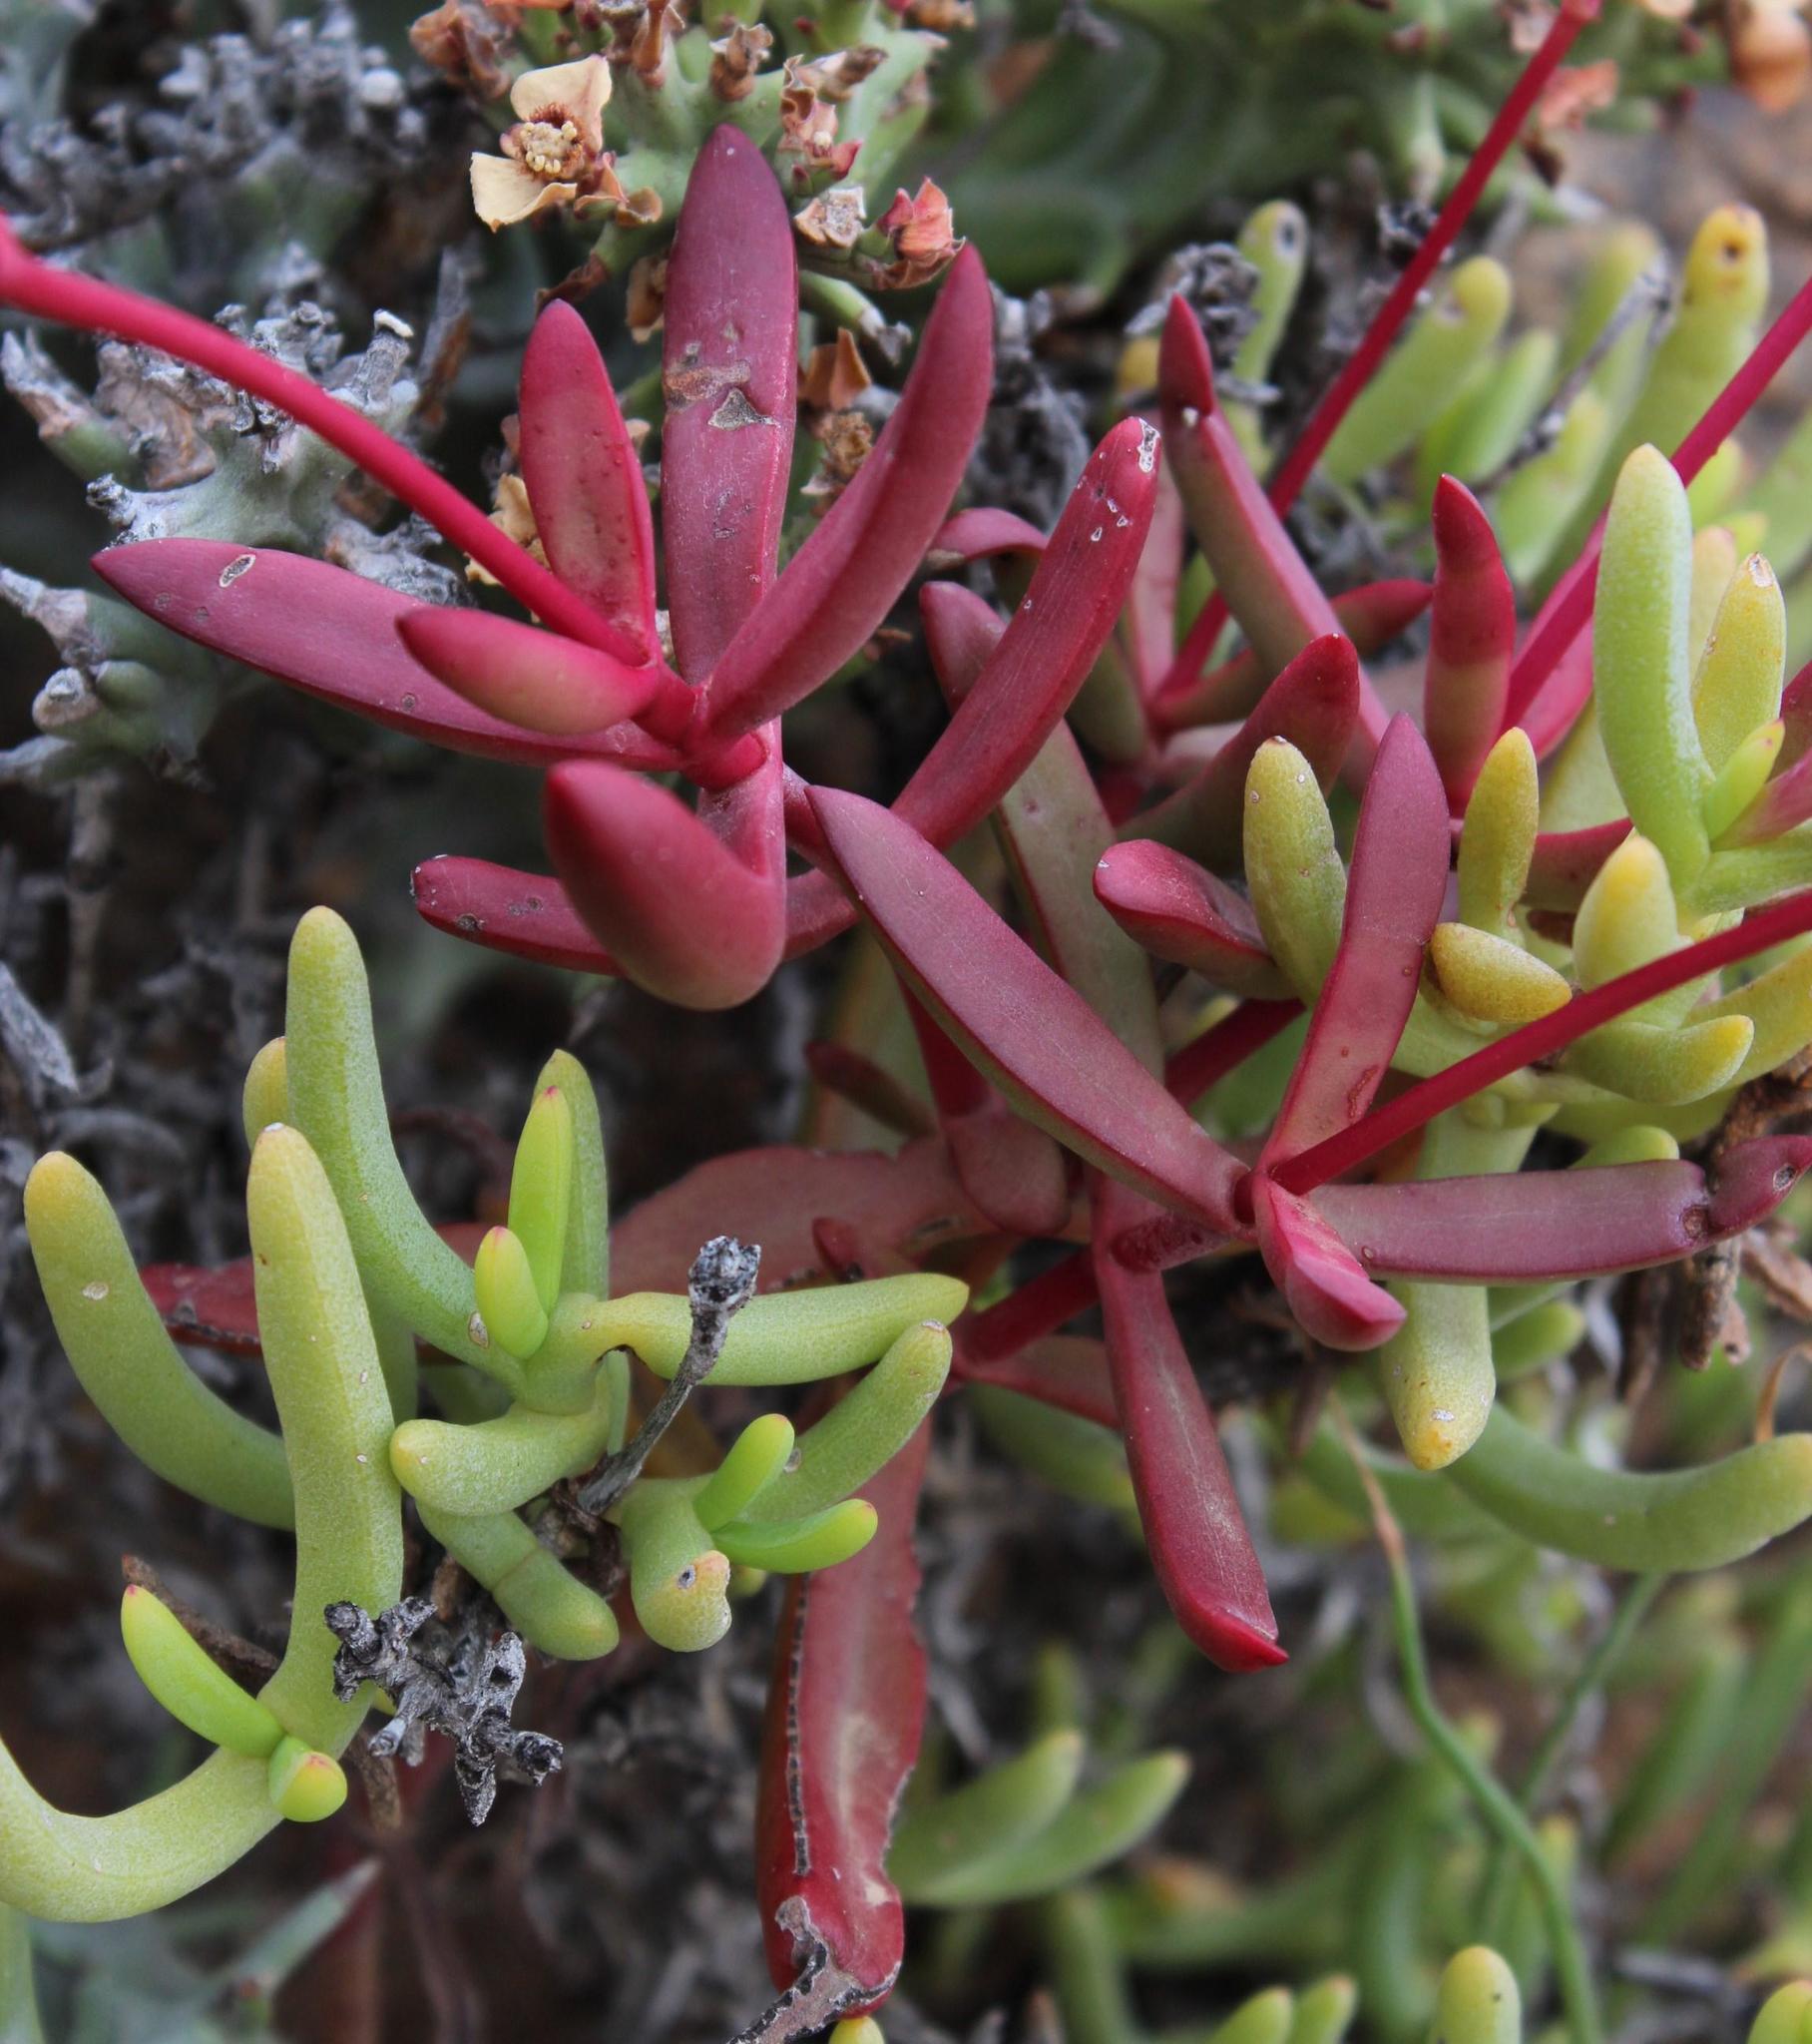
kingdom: Plantae
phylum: Tracheophyta
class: Magnoliopsida
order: Saxifragales
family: Crassulaceae
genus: Crassula
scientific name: Crassula subacaulis
